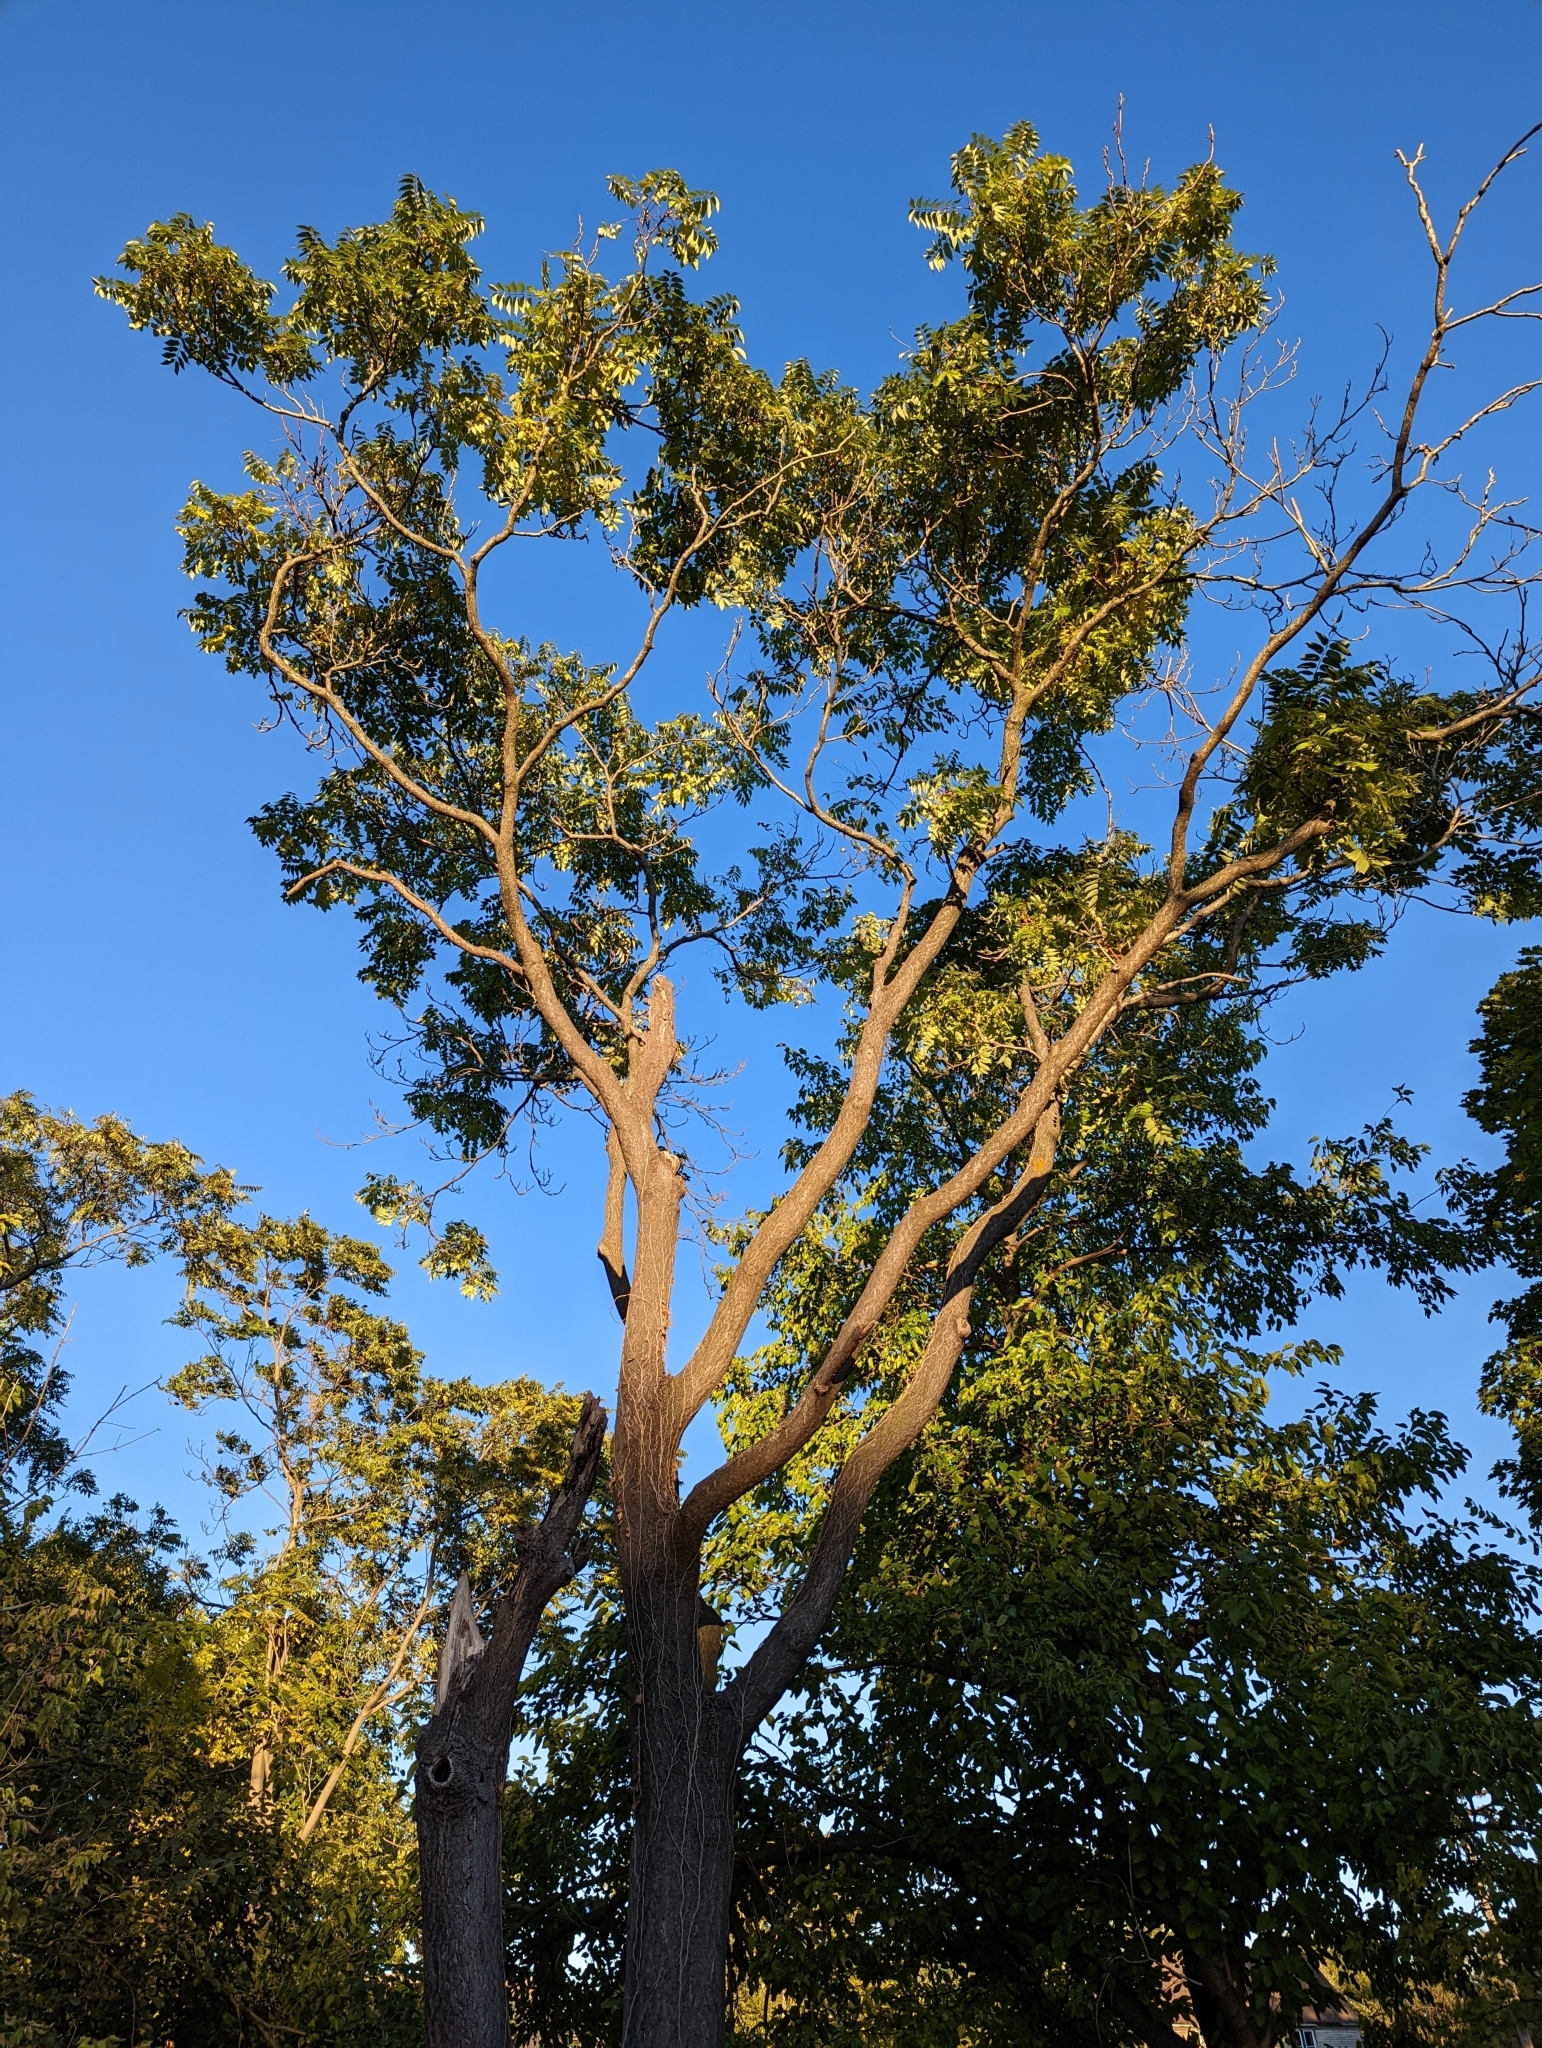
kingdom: Plantae
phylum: Tracheophyta
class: Magnoliopsida
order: Sapindales
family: Simaroubaceae
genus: Ailanthus
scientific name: Ailanthus altissima
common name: Tree-of-heaven
